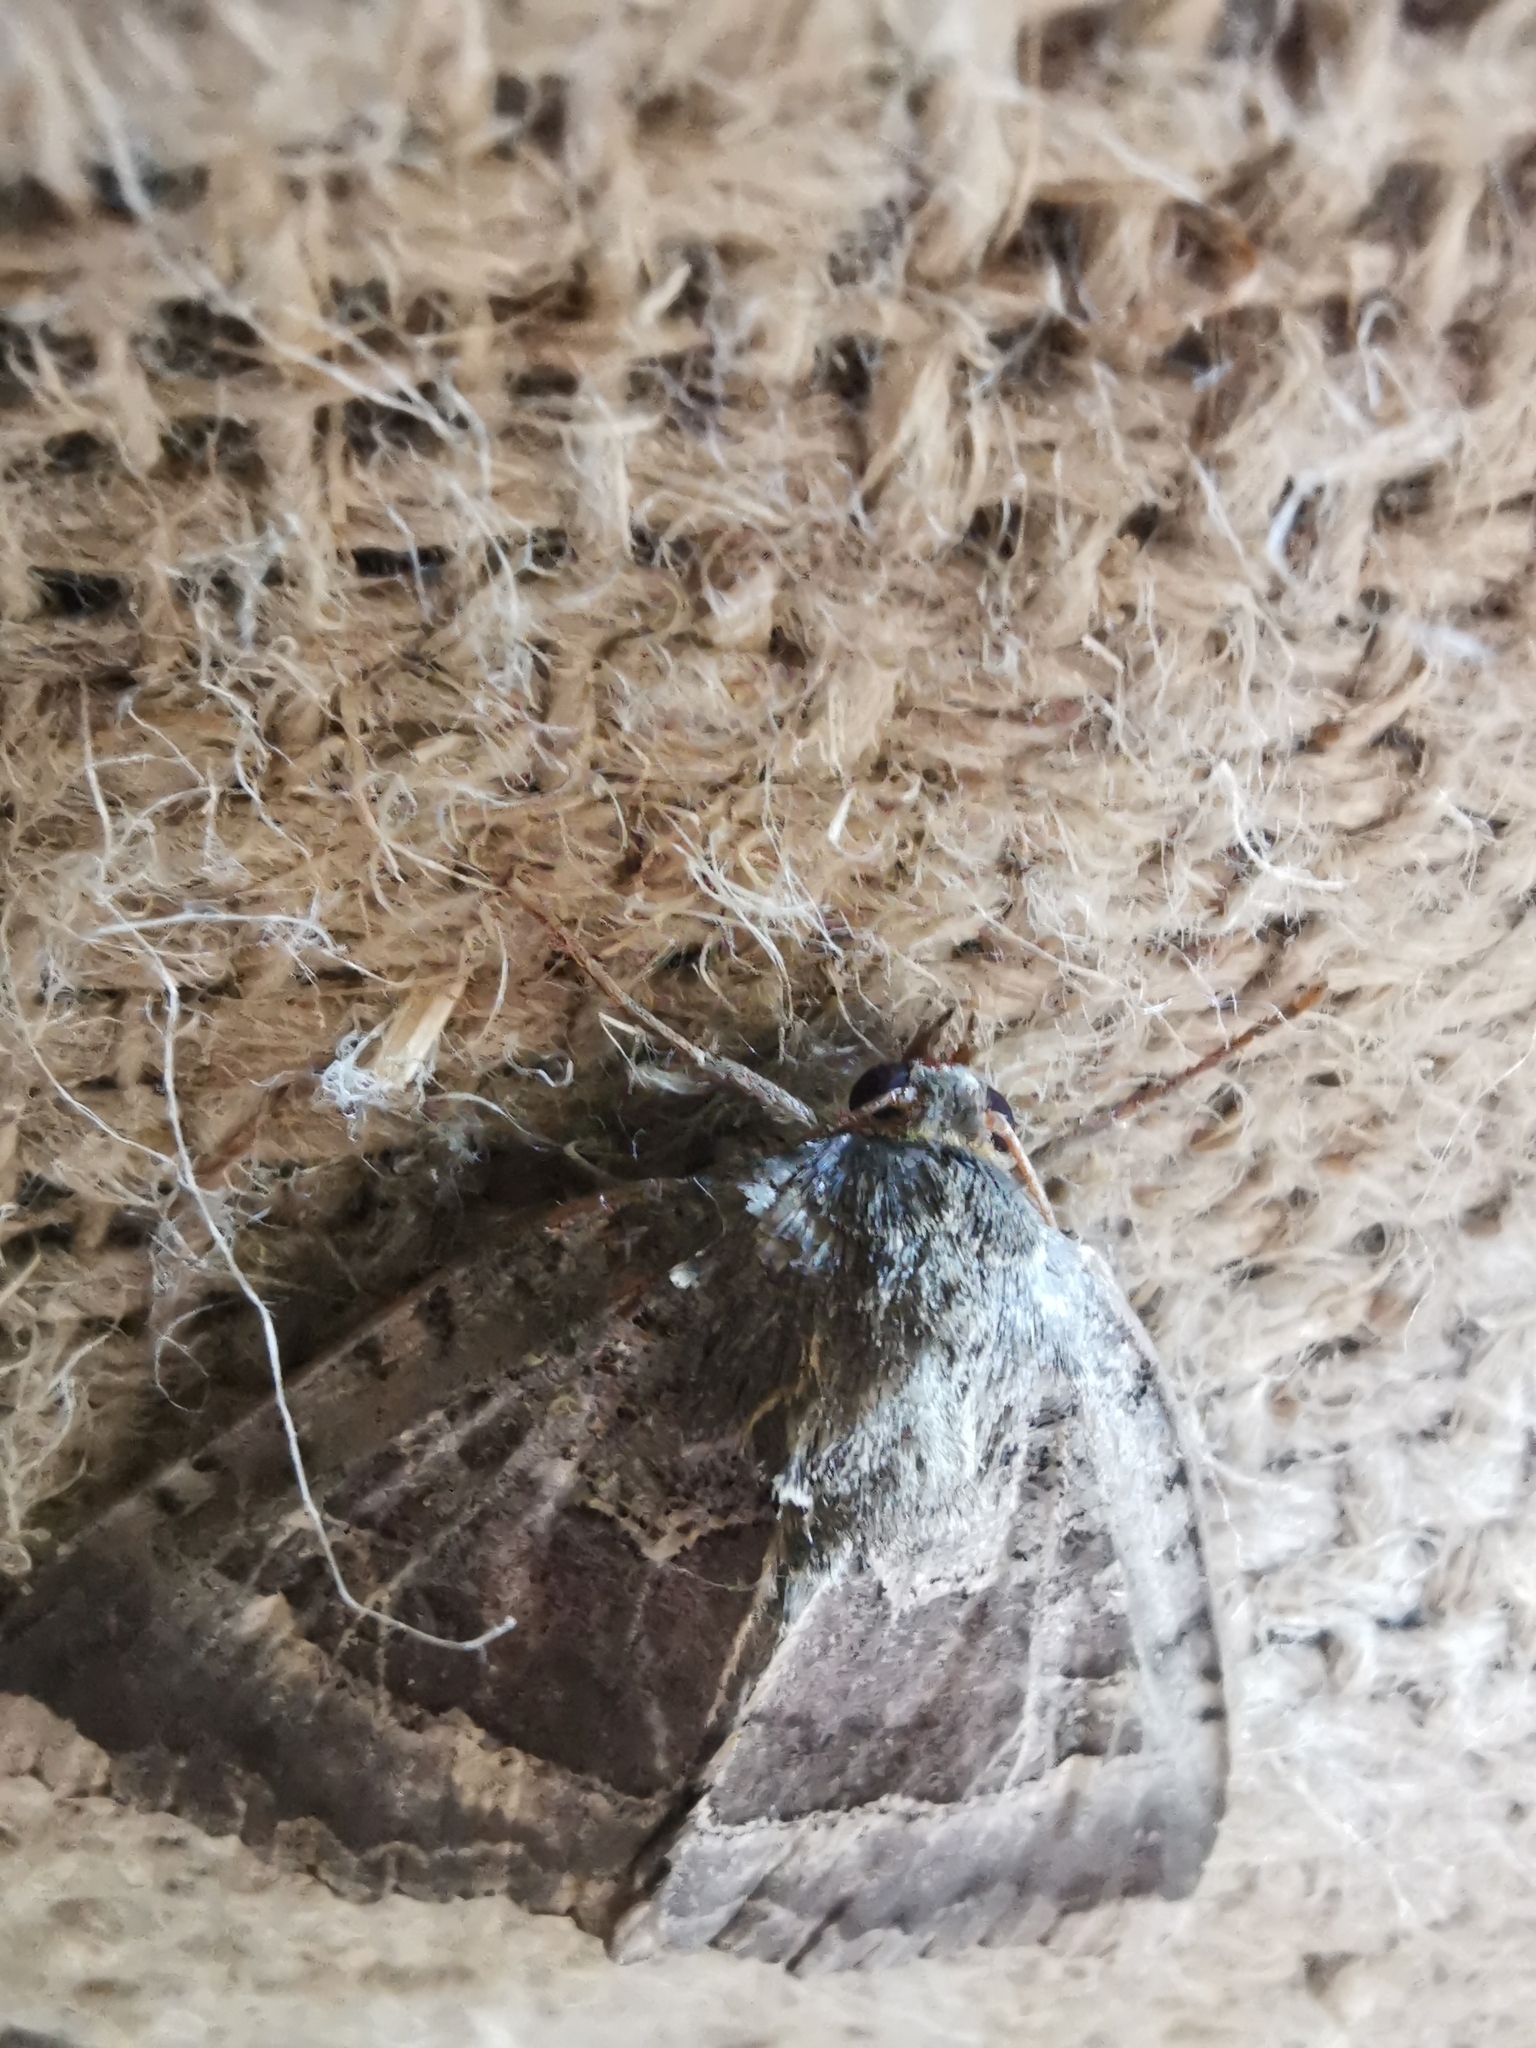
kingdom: Animalia
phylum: Arthropoda
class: Insecta
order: Lepidoptera
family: Noctuidae
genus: Mormo
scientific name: Mormo maura
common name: Old lady
